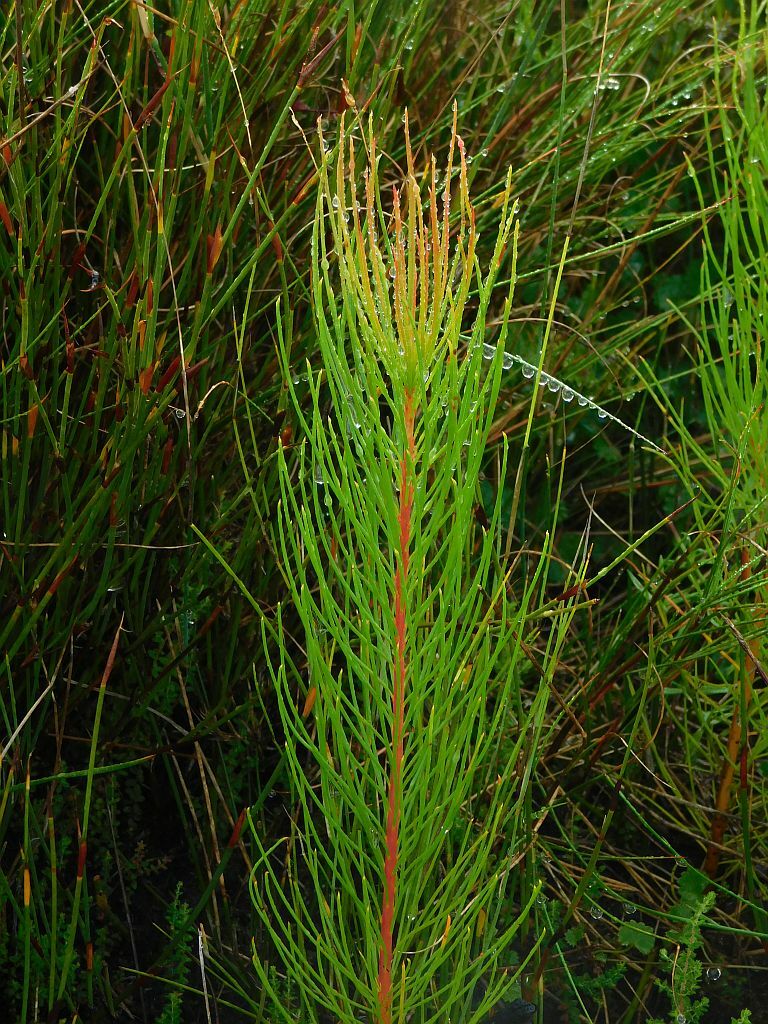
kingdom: Plantae
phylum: Tracheophyta
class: Magnoliopsida
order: Proteales
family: Proteaceae
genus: Spatalla
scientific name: Spatalla propinqua
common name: Lax spoon
